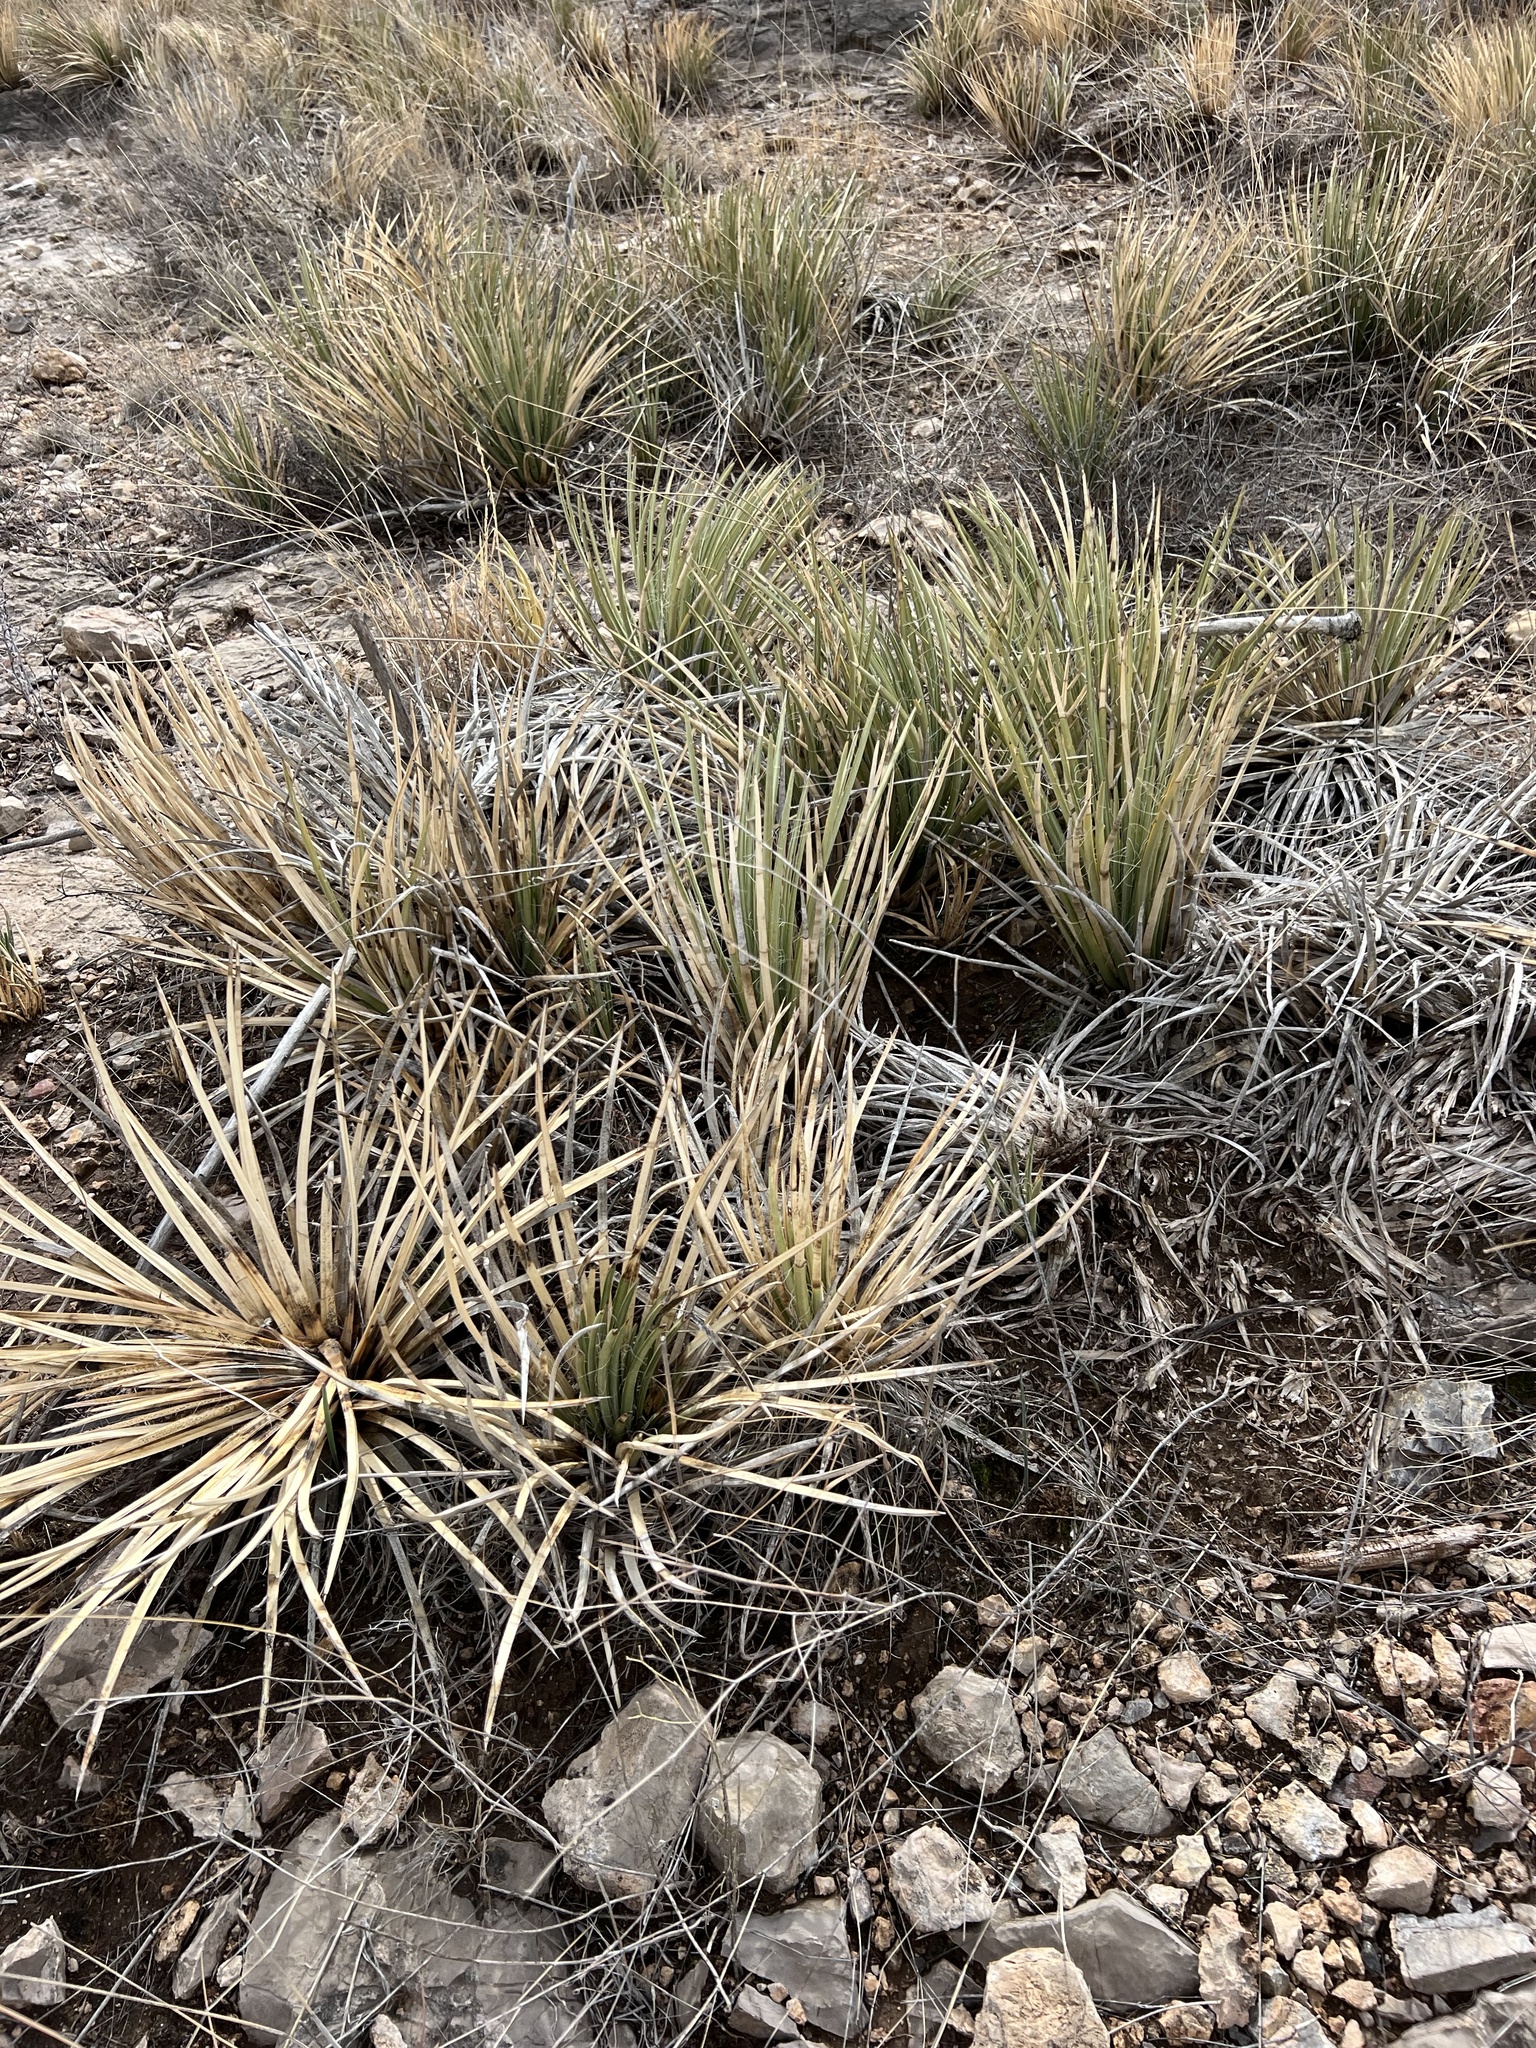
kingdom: Plantae
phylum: Tracheophyta
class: Liliopsida
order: Asparagales
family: Asparagaceae
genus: Agave
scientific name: Agave schottii
